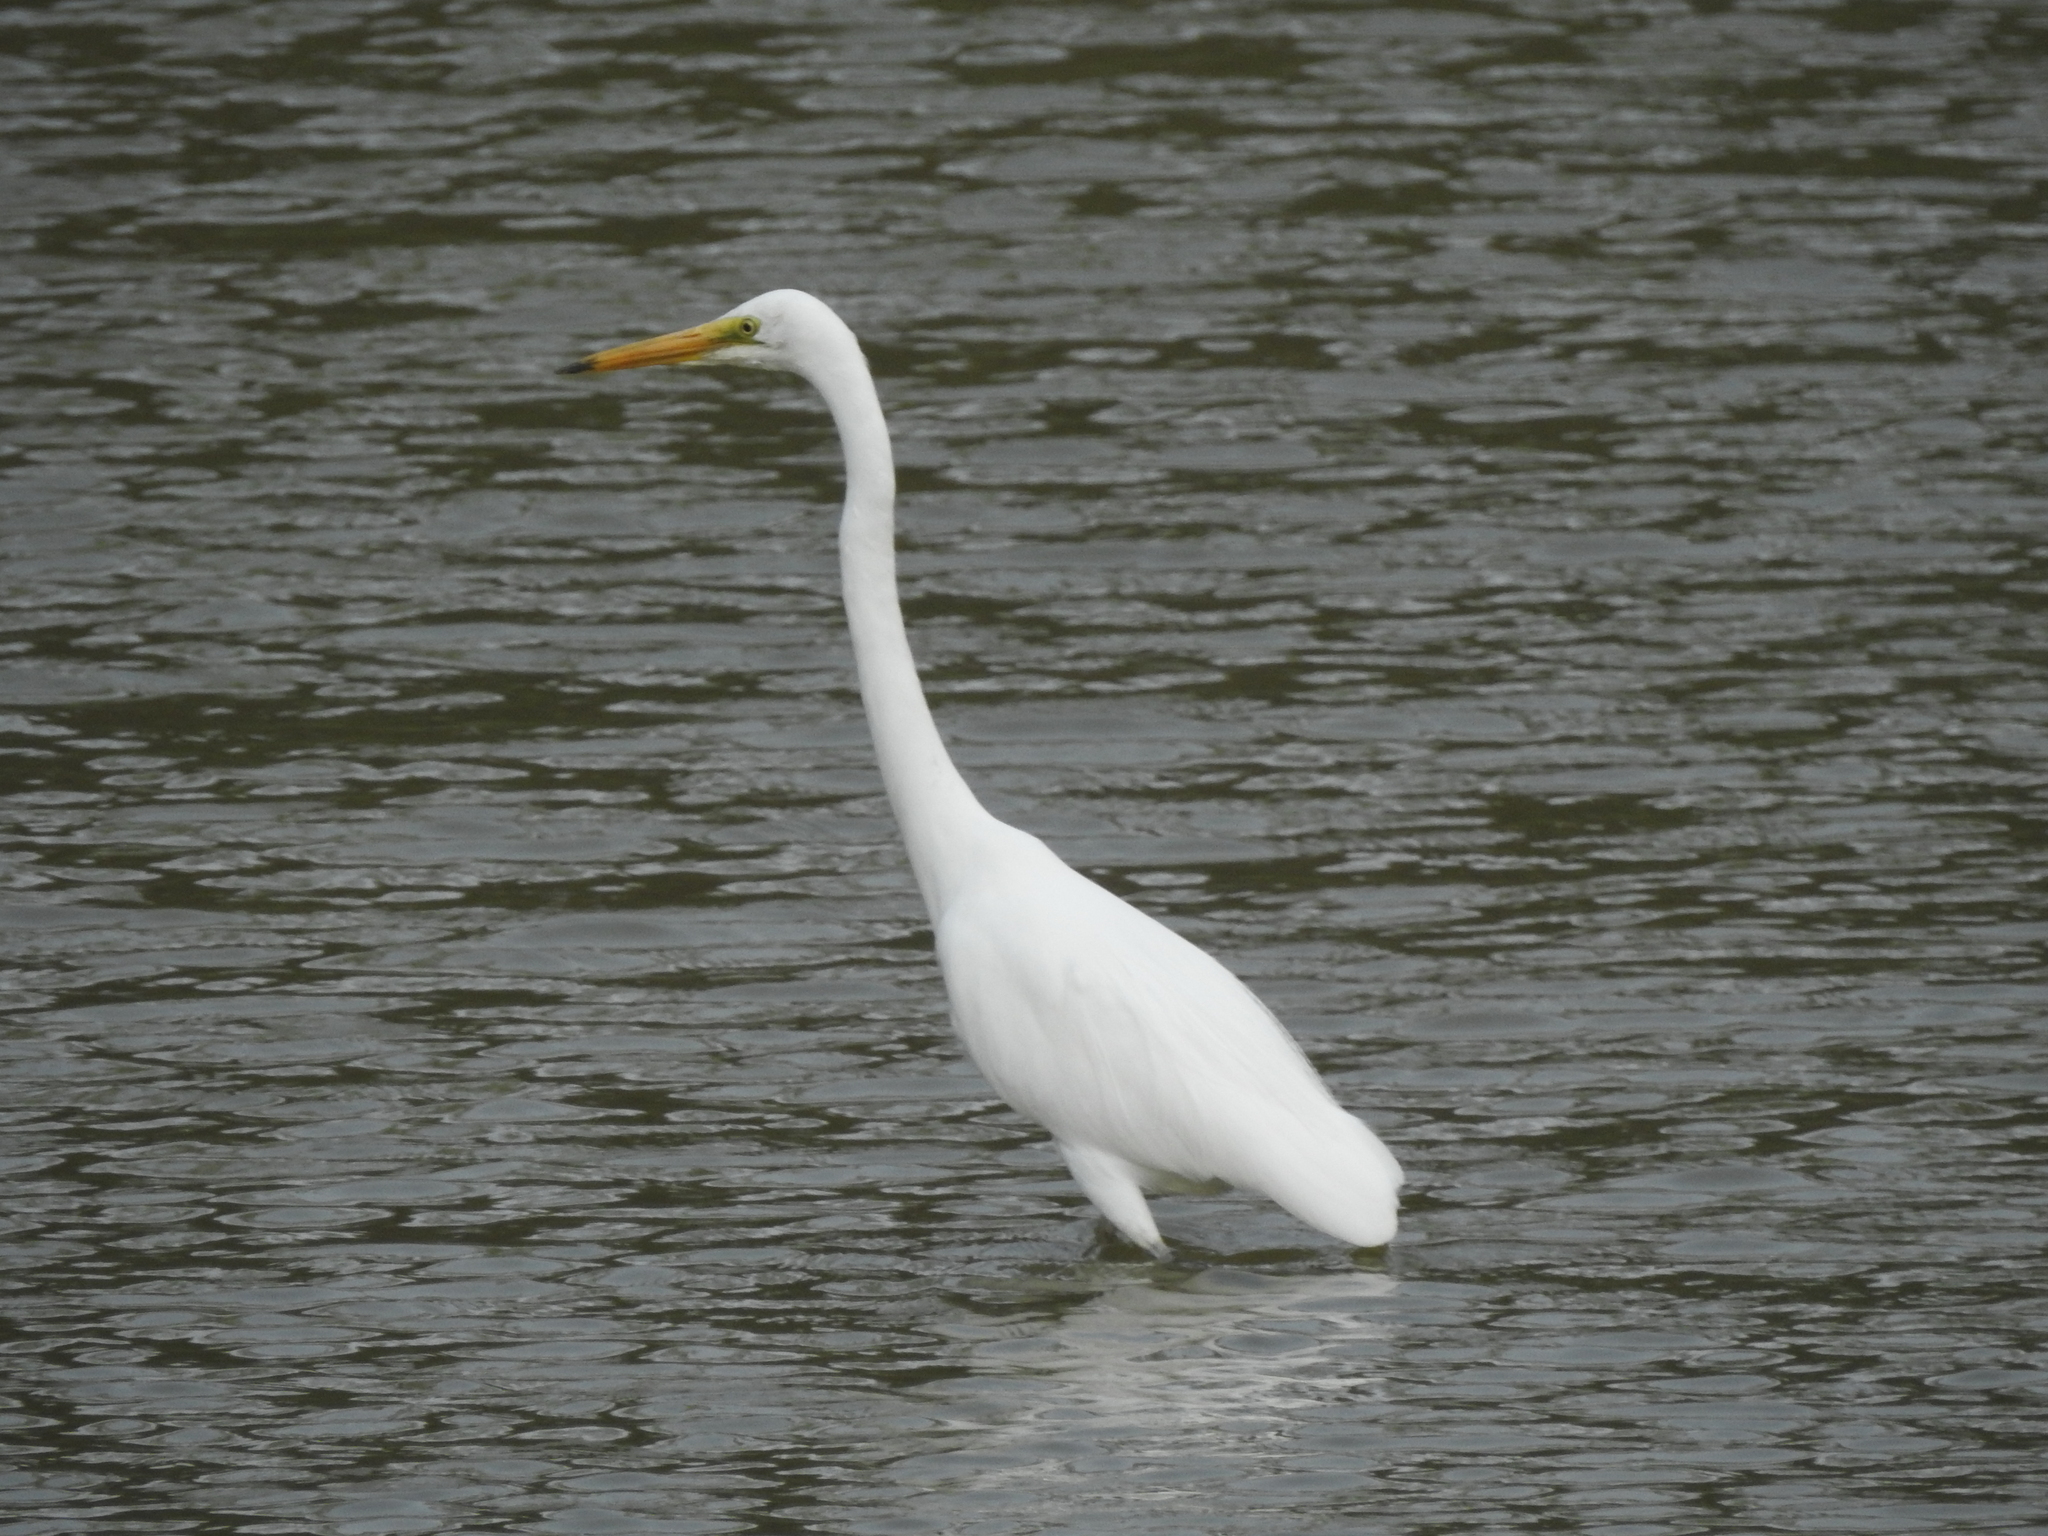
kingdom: Animalia
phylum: Chordata
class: Aves
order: Pelecaniformes
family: Ardeidae
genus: Ardea
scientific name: Ardea alba
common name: Great egret
